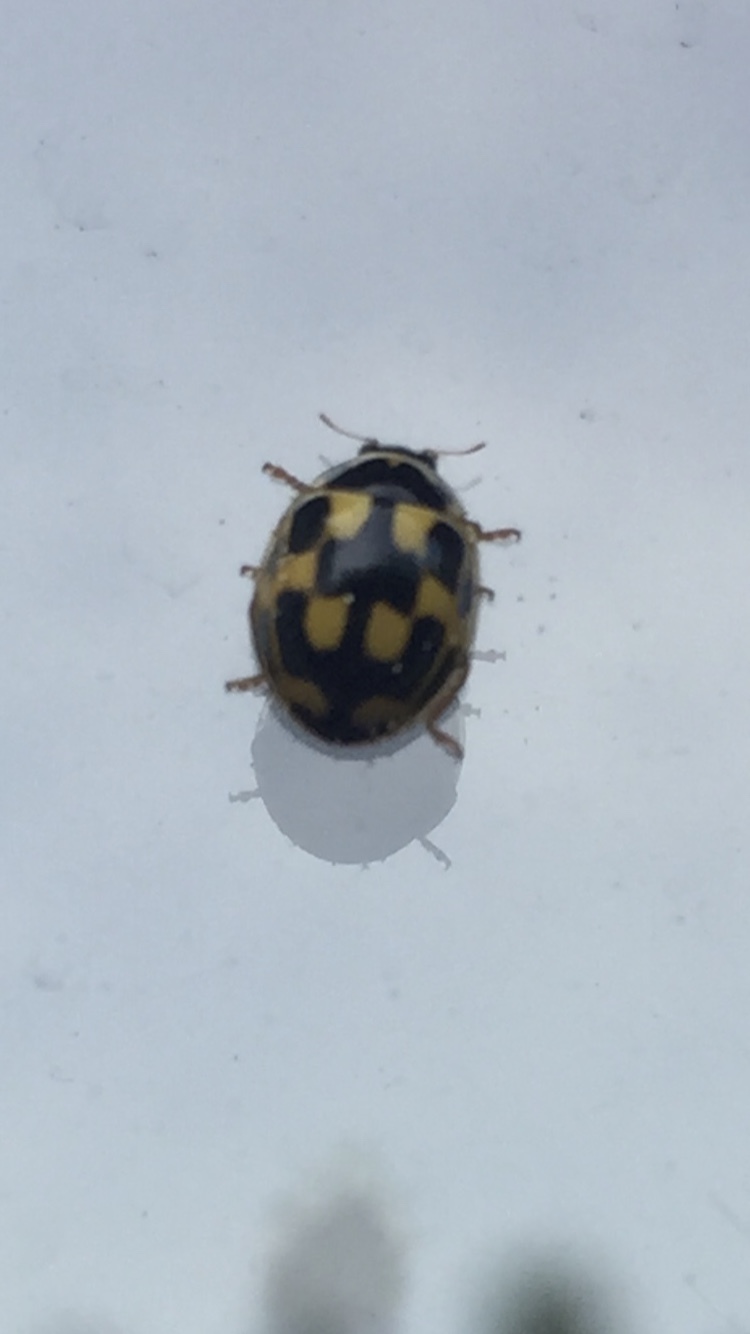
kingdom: Animalia
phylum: Arthropoda
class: Insecta
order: Coleoptera
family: Coccinellidae
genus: Propylaea
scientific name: Propylaea quatuordecimpunctata
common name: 14-spotted ladybird beetle
